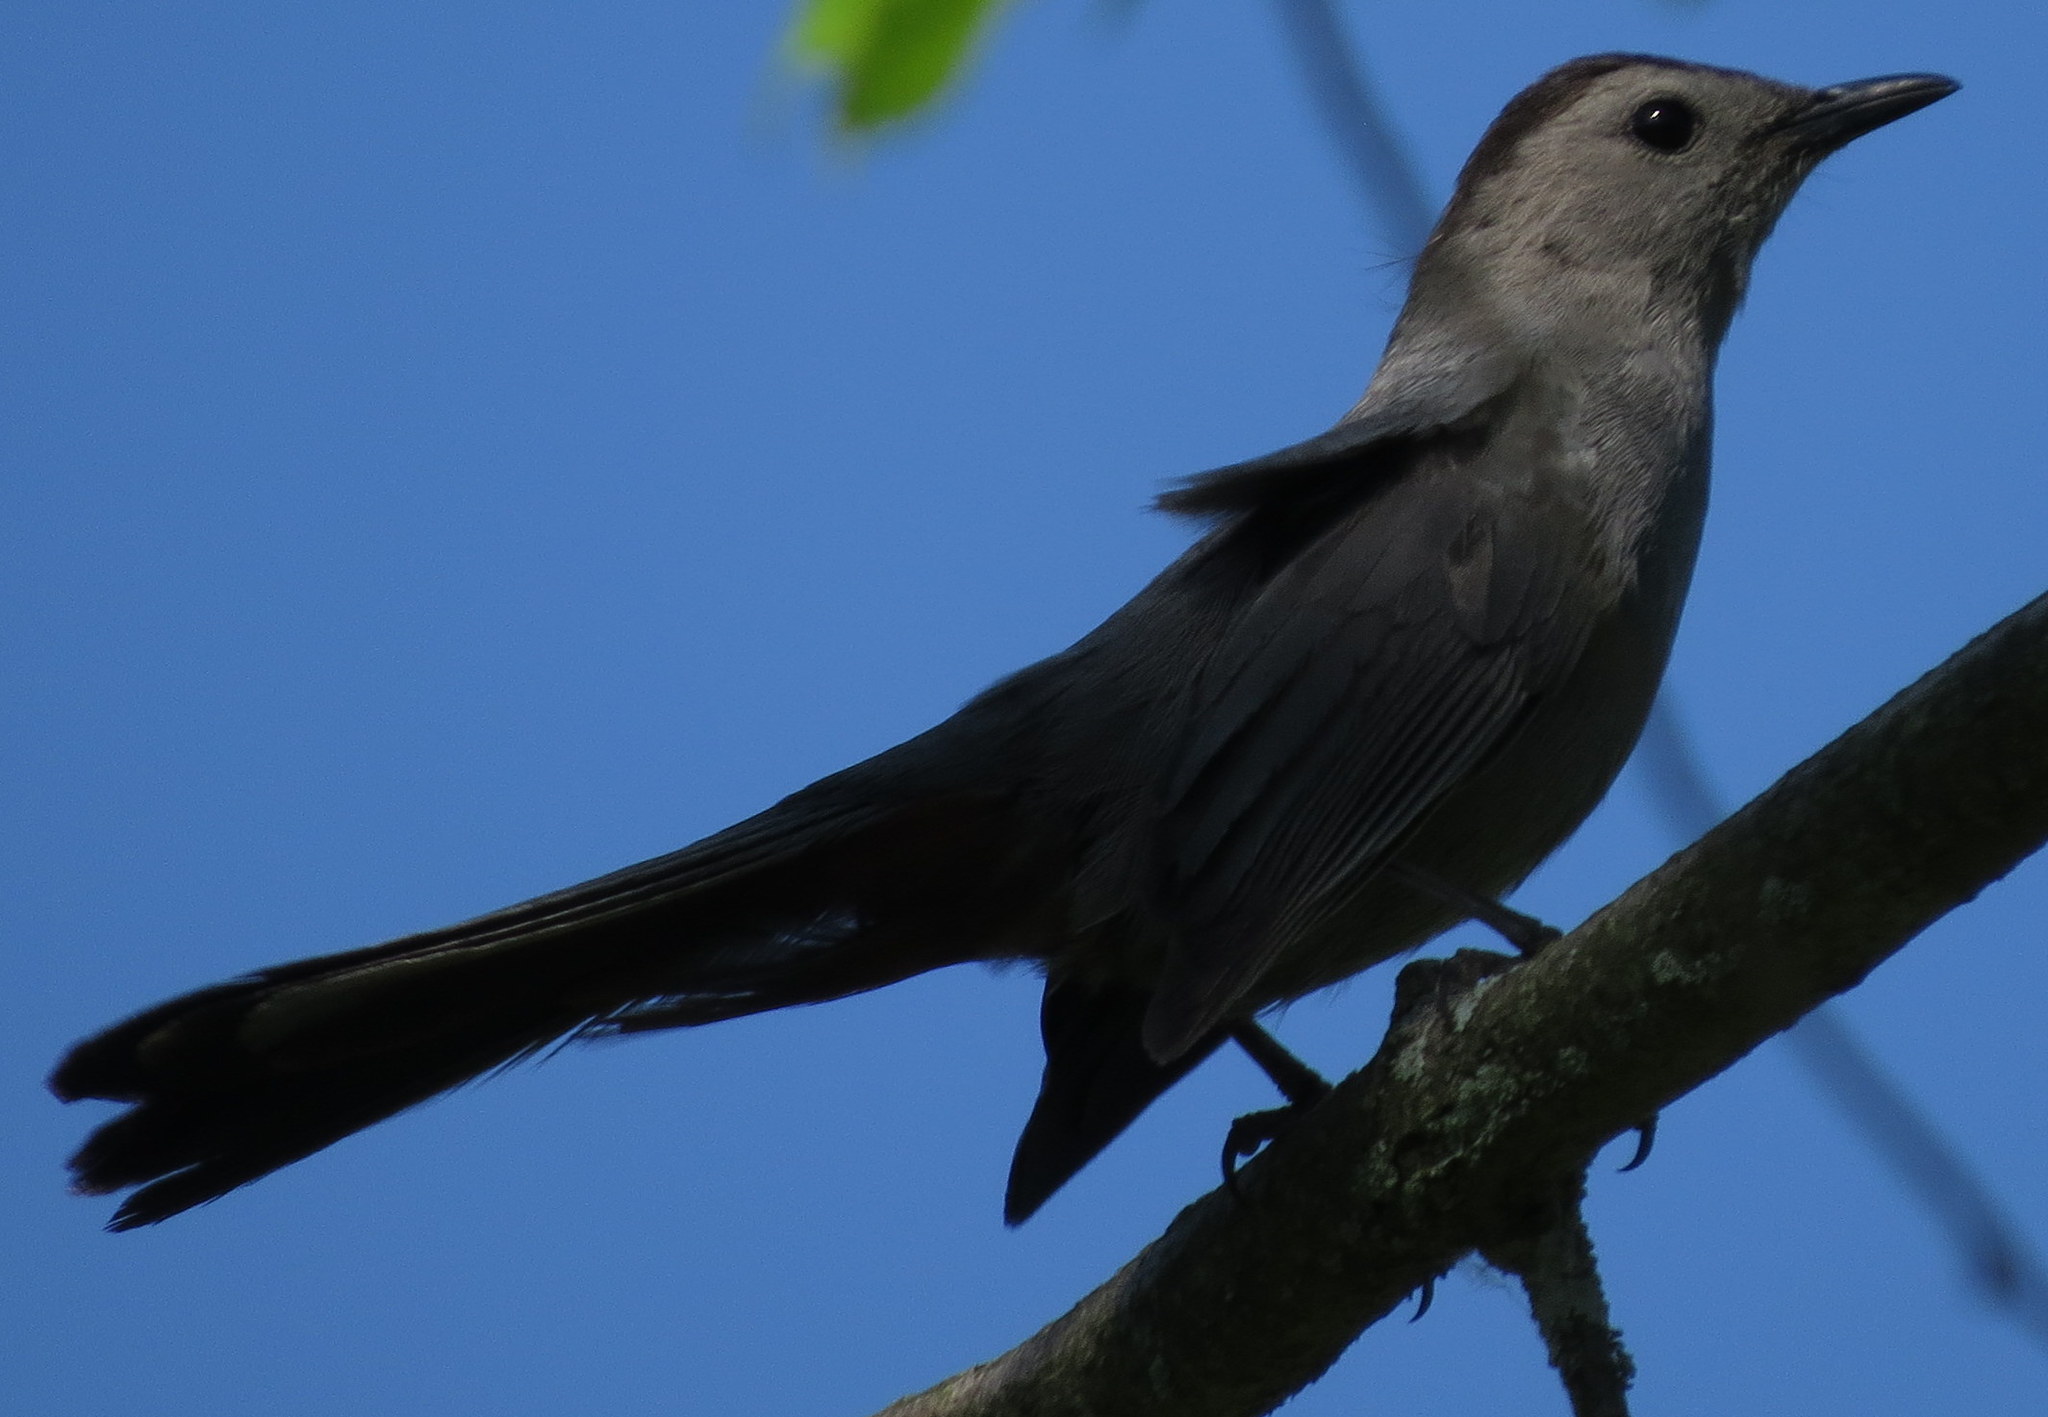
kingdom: Animalia
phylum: Chordata
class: Aves
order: Passeriformes
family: Mimidae
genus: Dumetella
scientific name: Dumetella carolinensis
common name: Gray catbird
